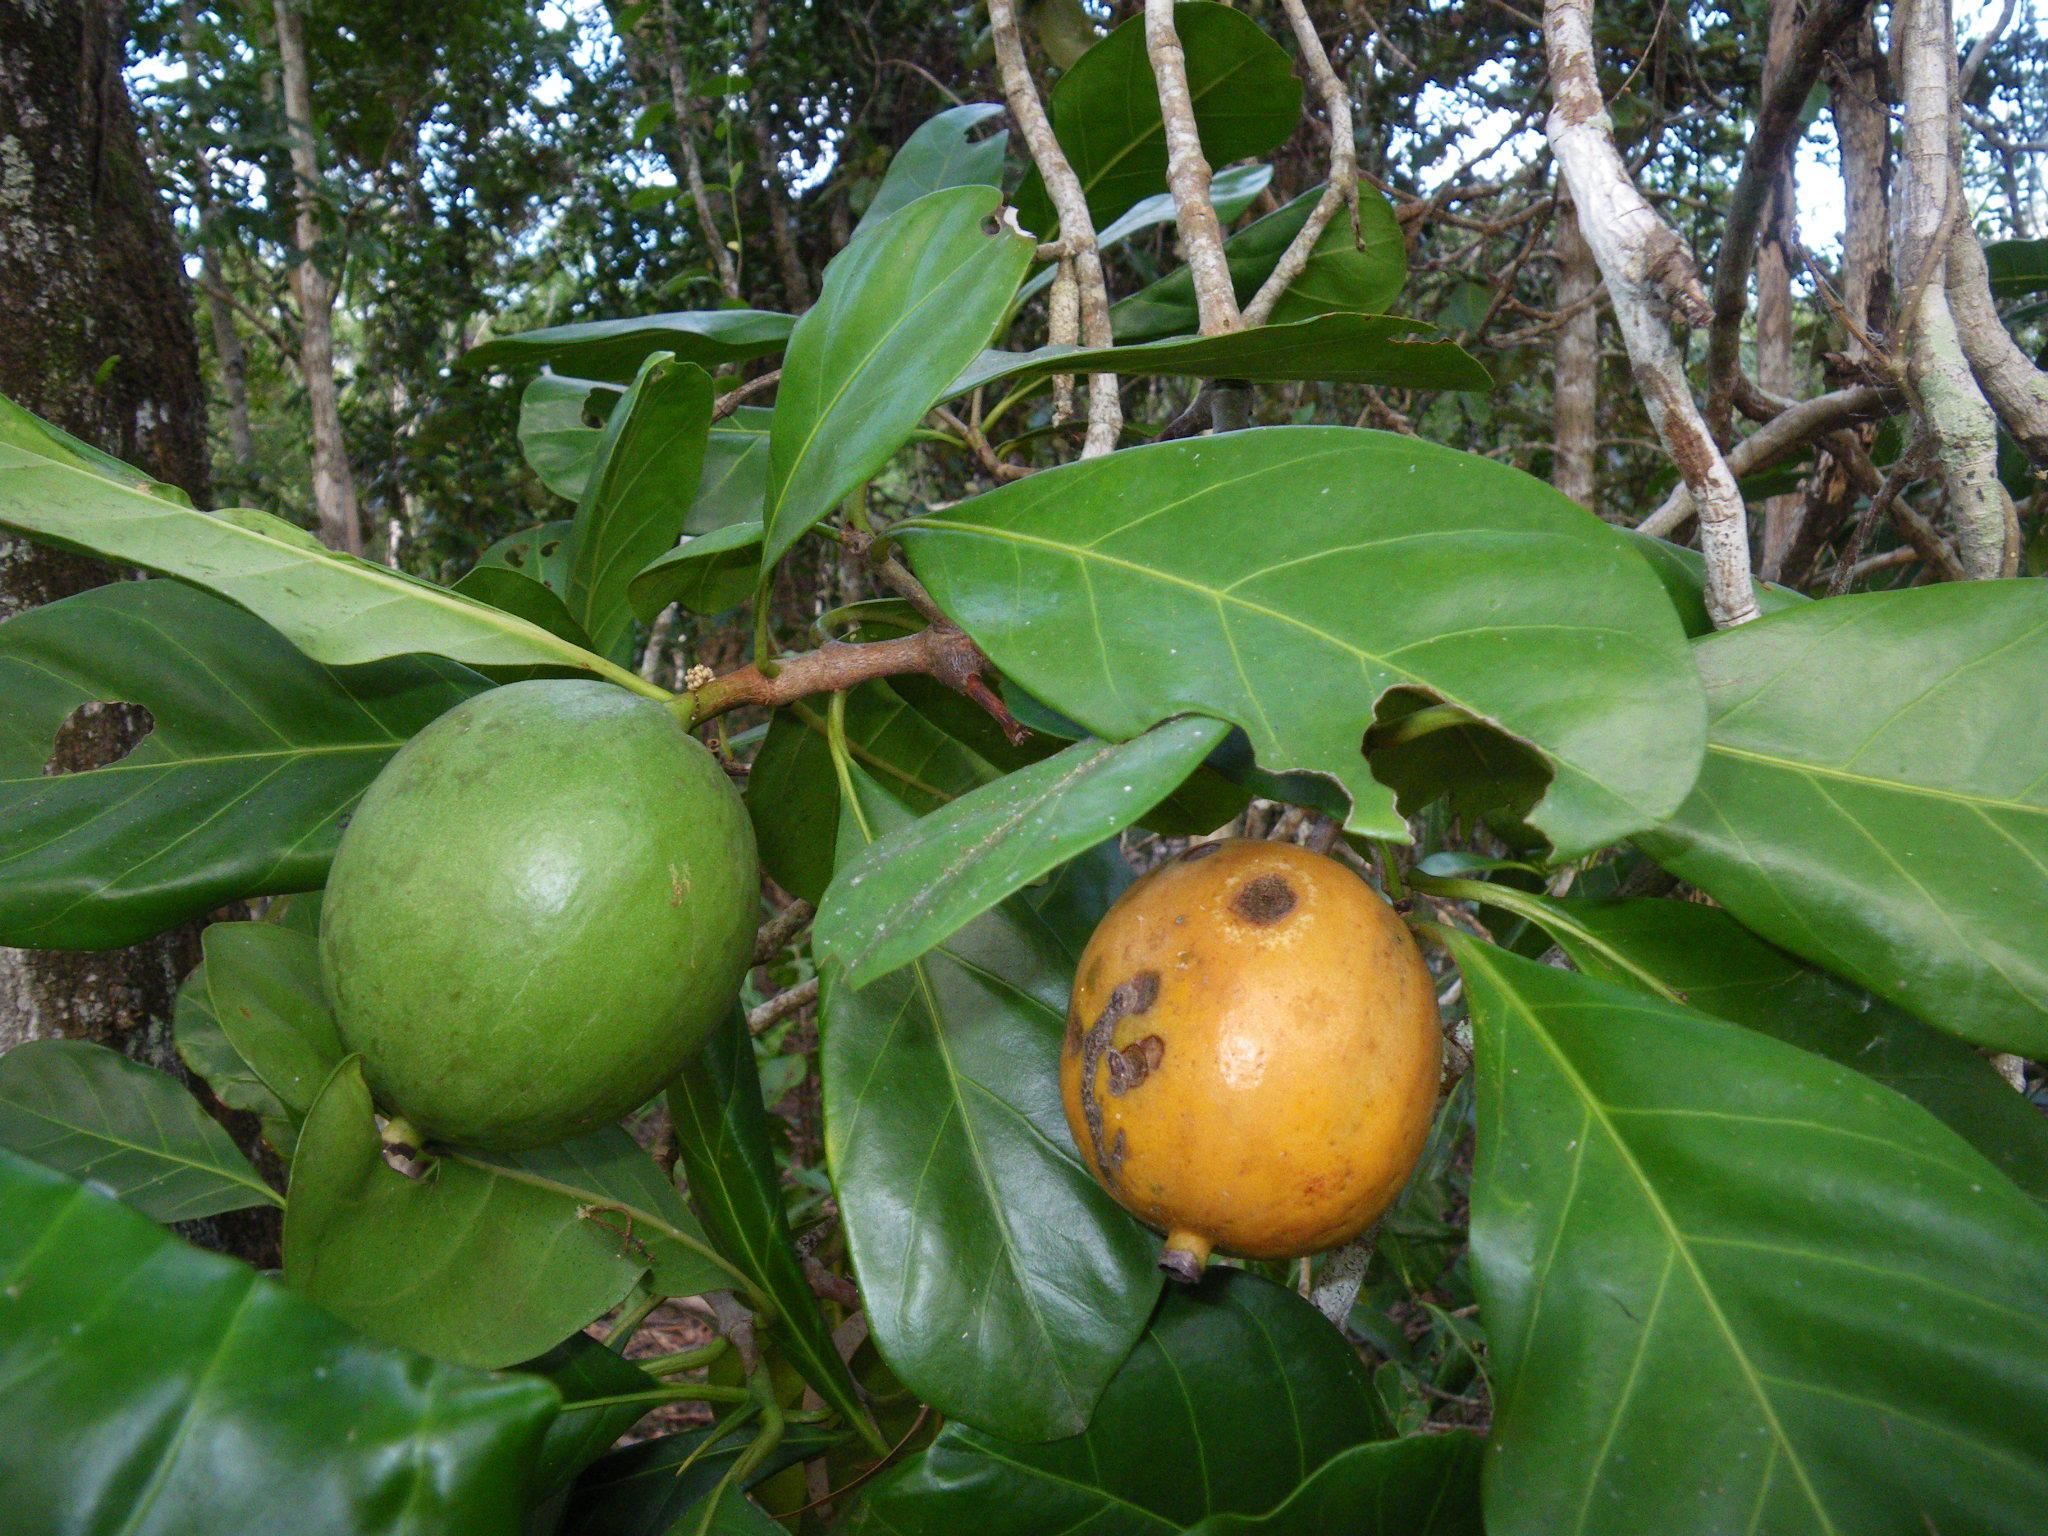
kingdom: Plantae
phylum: Tracheophyta
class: Magnoliopsida
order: Gentianales
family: Rubiaceae
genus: Atractocarpus
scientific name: Atractocarpus fitzalanii
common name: Randia
